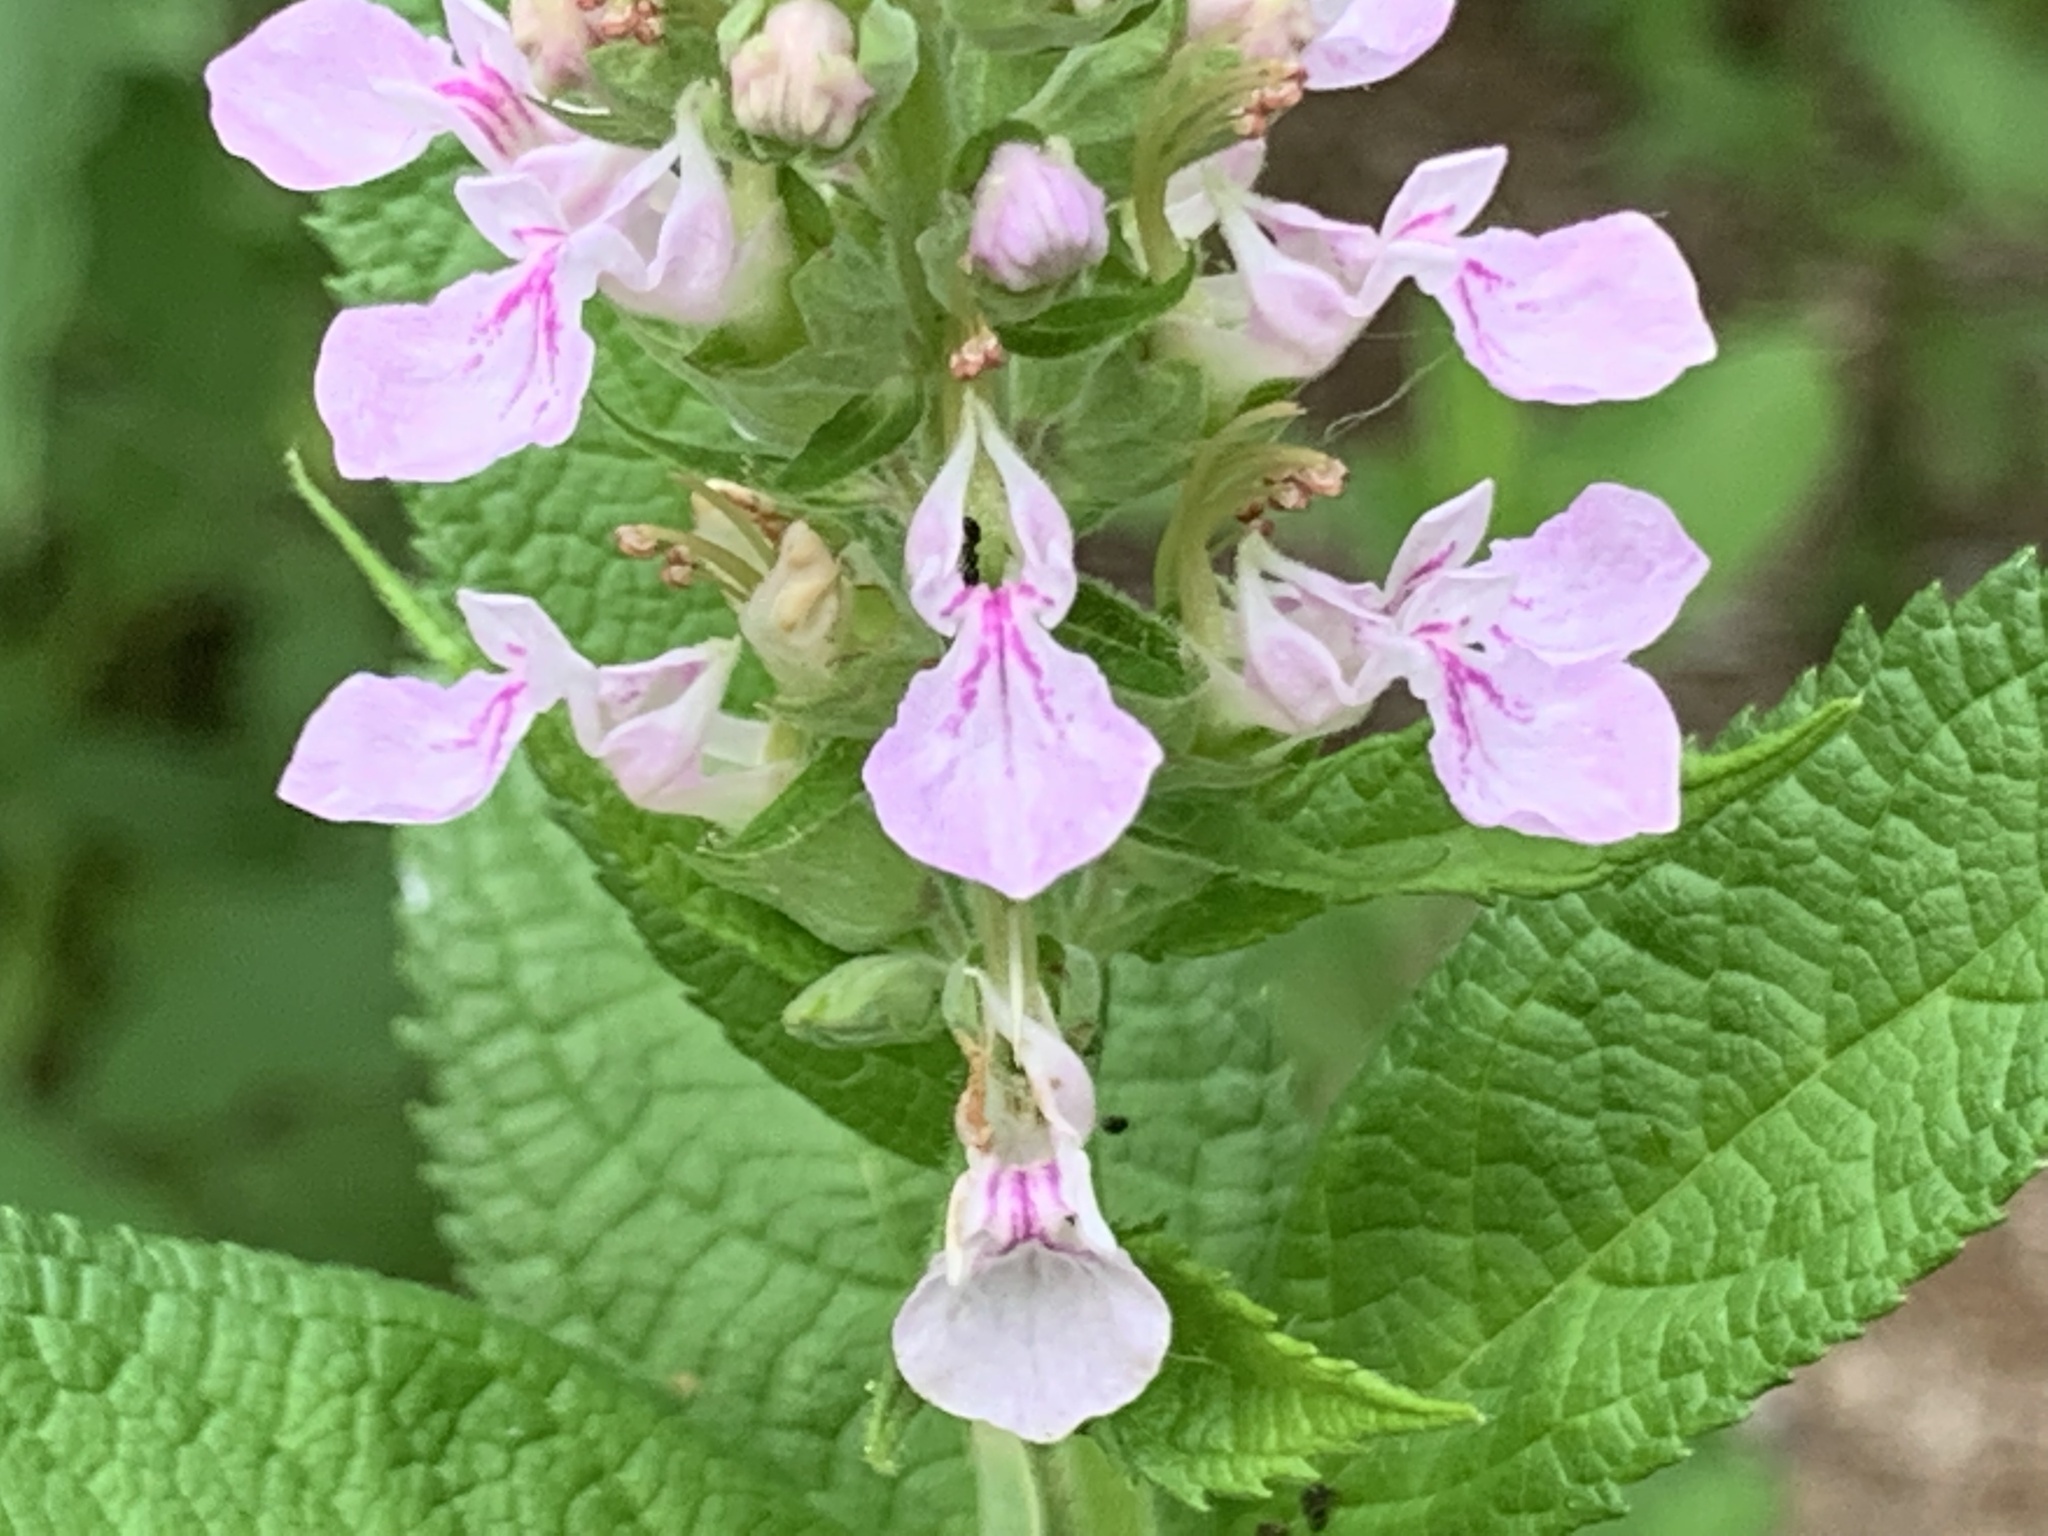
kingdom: Plantae
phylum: Tracheophyta
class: Magnoliopsida
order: Lamiales
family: Lamiaceae
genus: Teucrium
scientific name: Teucrium canadense
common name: American germander
